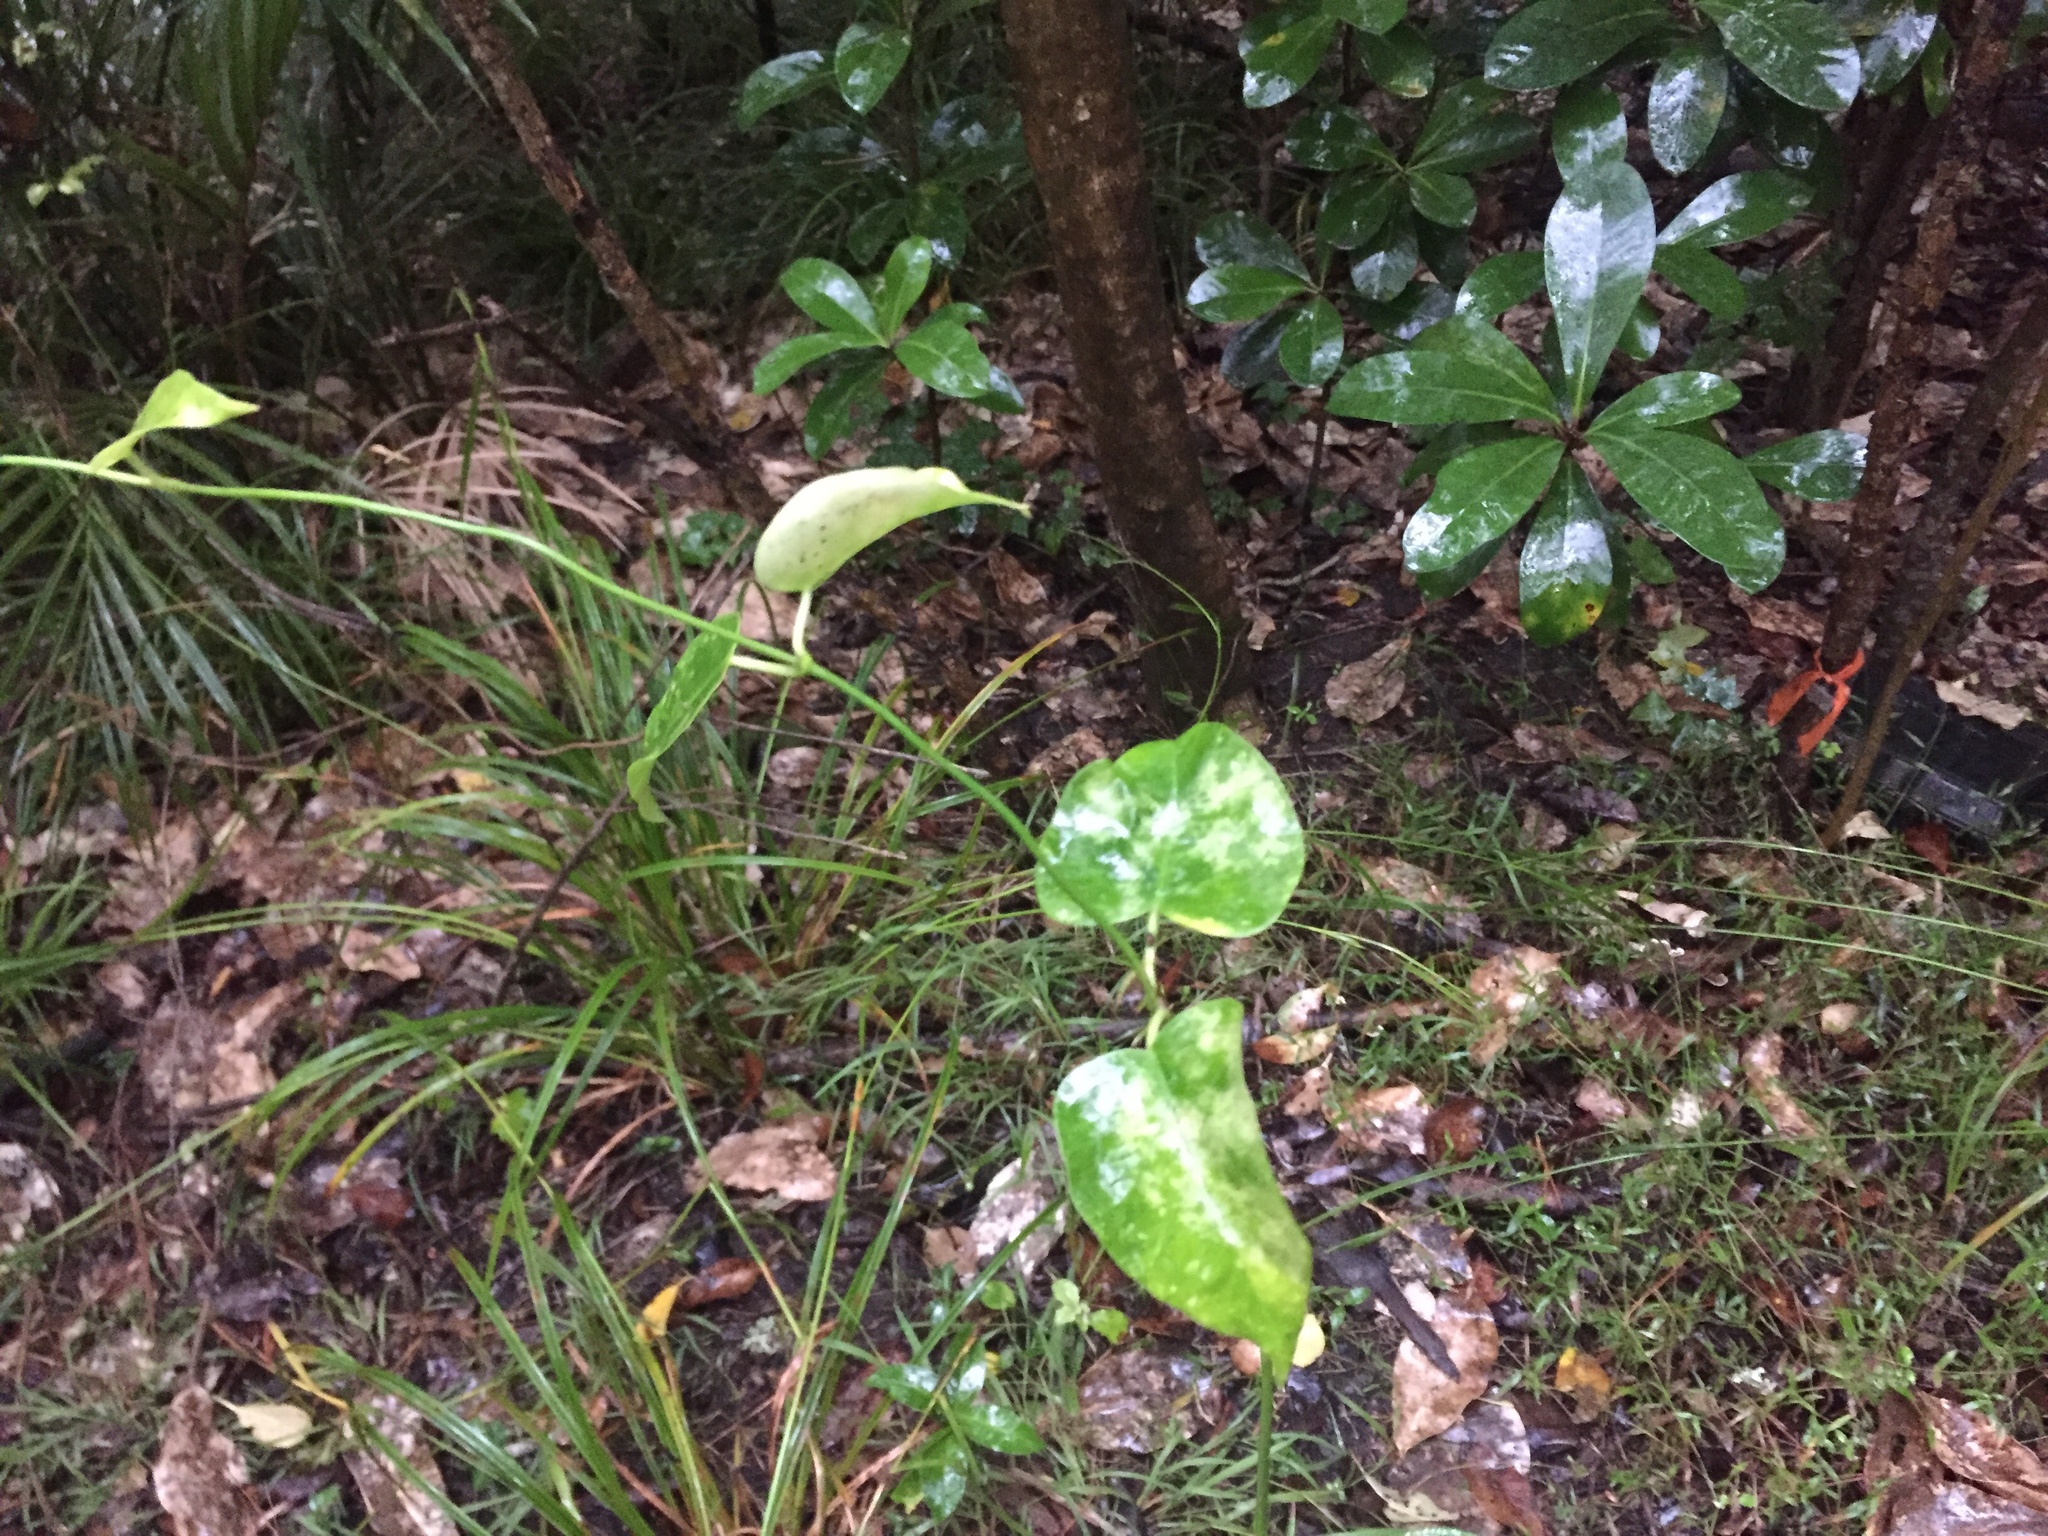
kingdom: Plantae
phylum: Tracheophyta
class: Magnoliopsida
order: Gentianales
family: Apocynaceae
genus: Araujia
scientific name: Araujia sericifera
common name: White bladderflower
